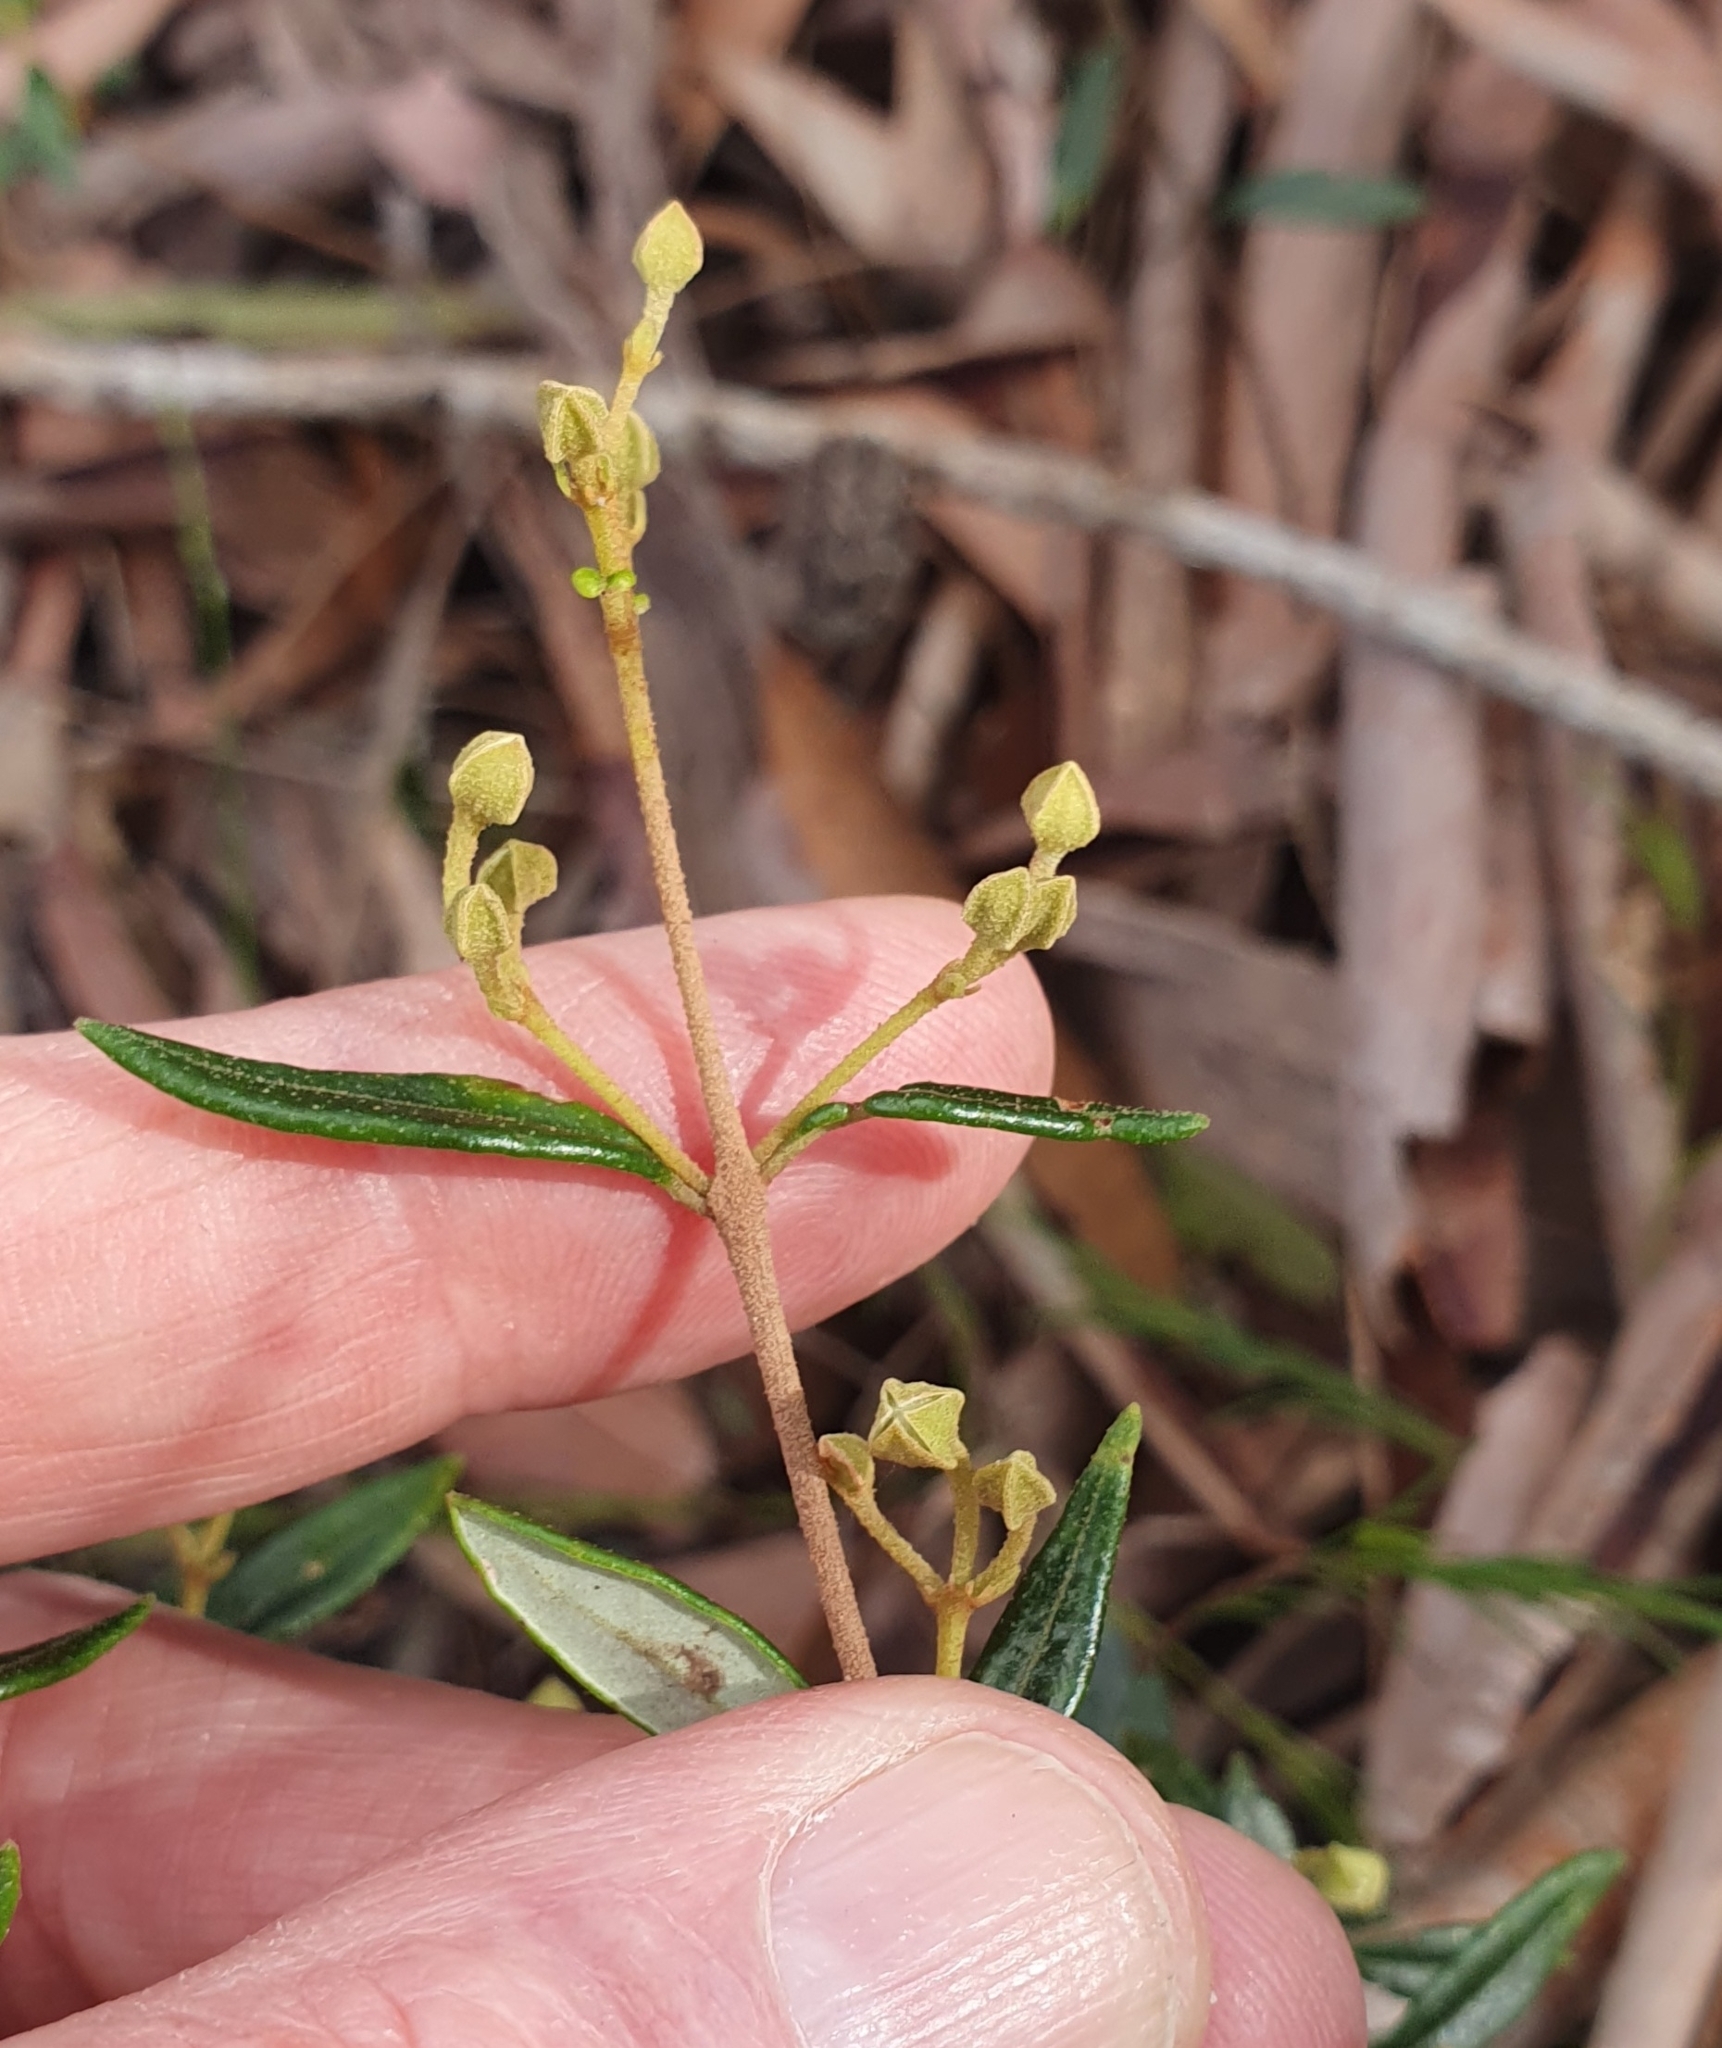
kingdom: Plantae
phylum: Tracheophyta
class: Magnoliopsida
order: Sapindales
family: Rutaceae
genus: Boronia
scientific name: Boronia ledifolia
